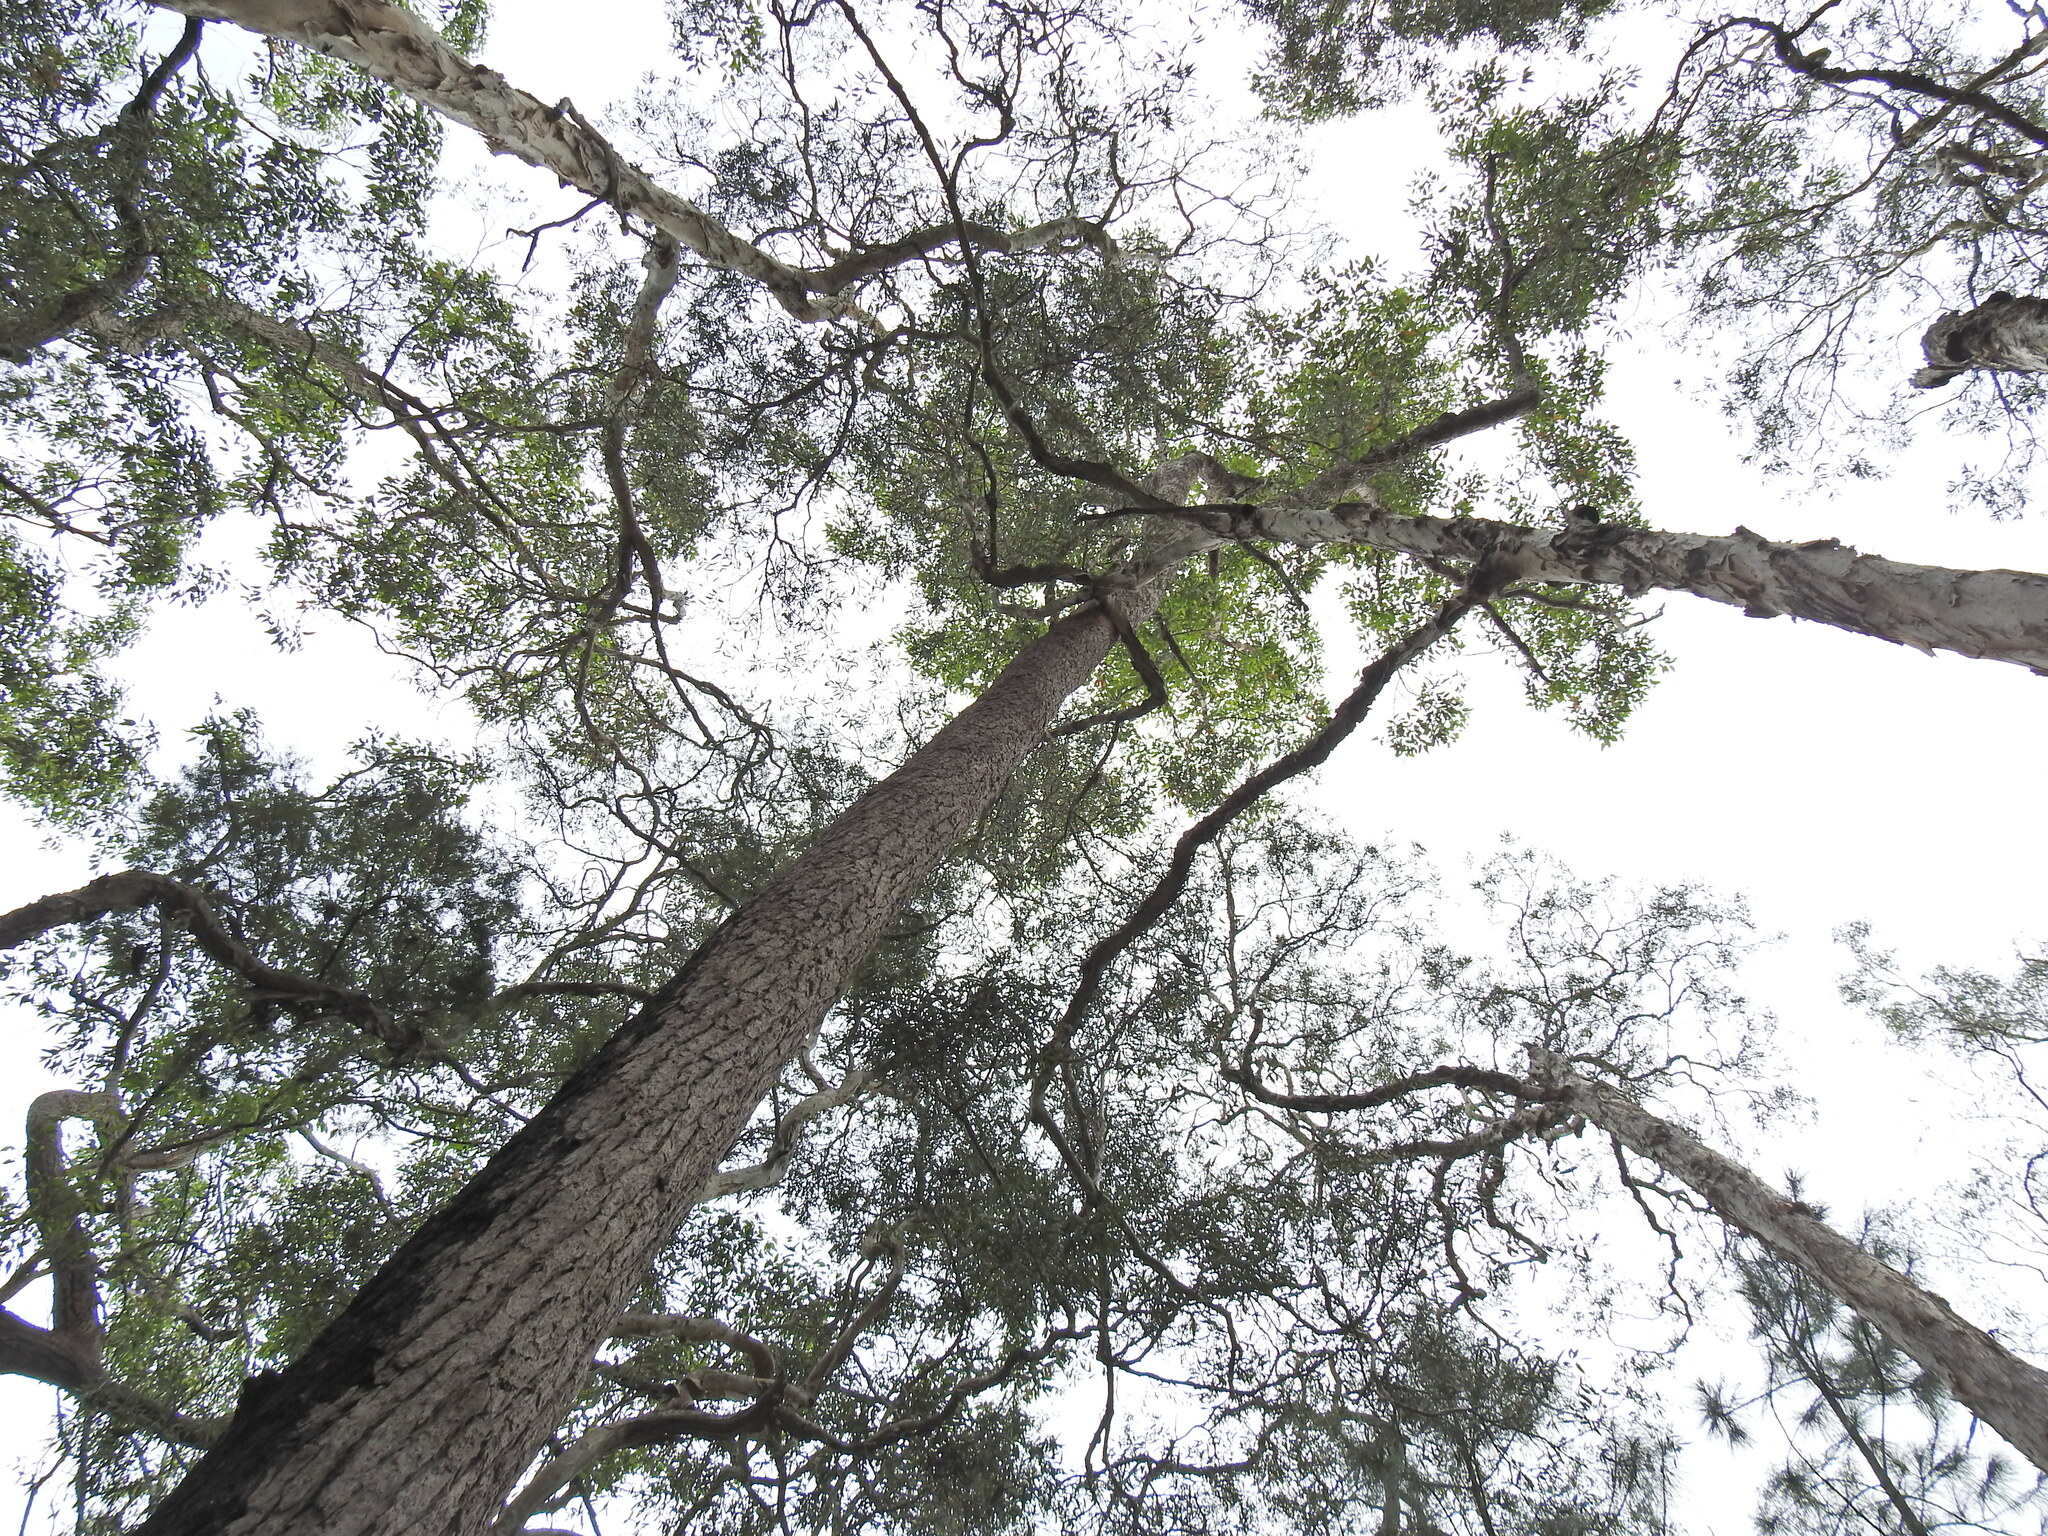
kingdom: Plantae
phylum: Tracheophyta
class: Magnoliopsida
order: Myrtales
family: Myrtaceae
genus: Eucalyptus
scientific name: Eucalyptus robusta
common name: Swampmahogany
